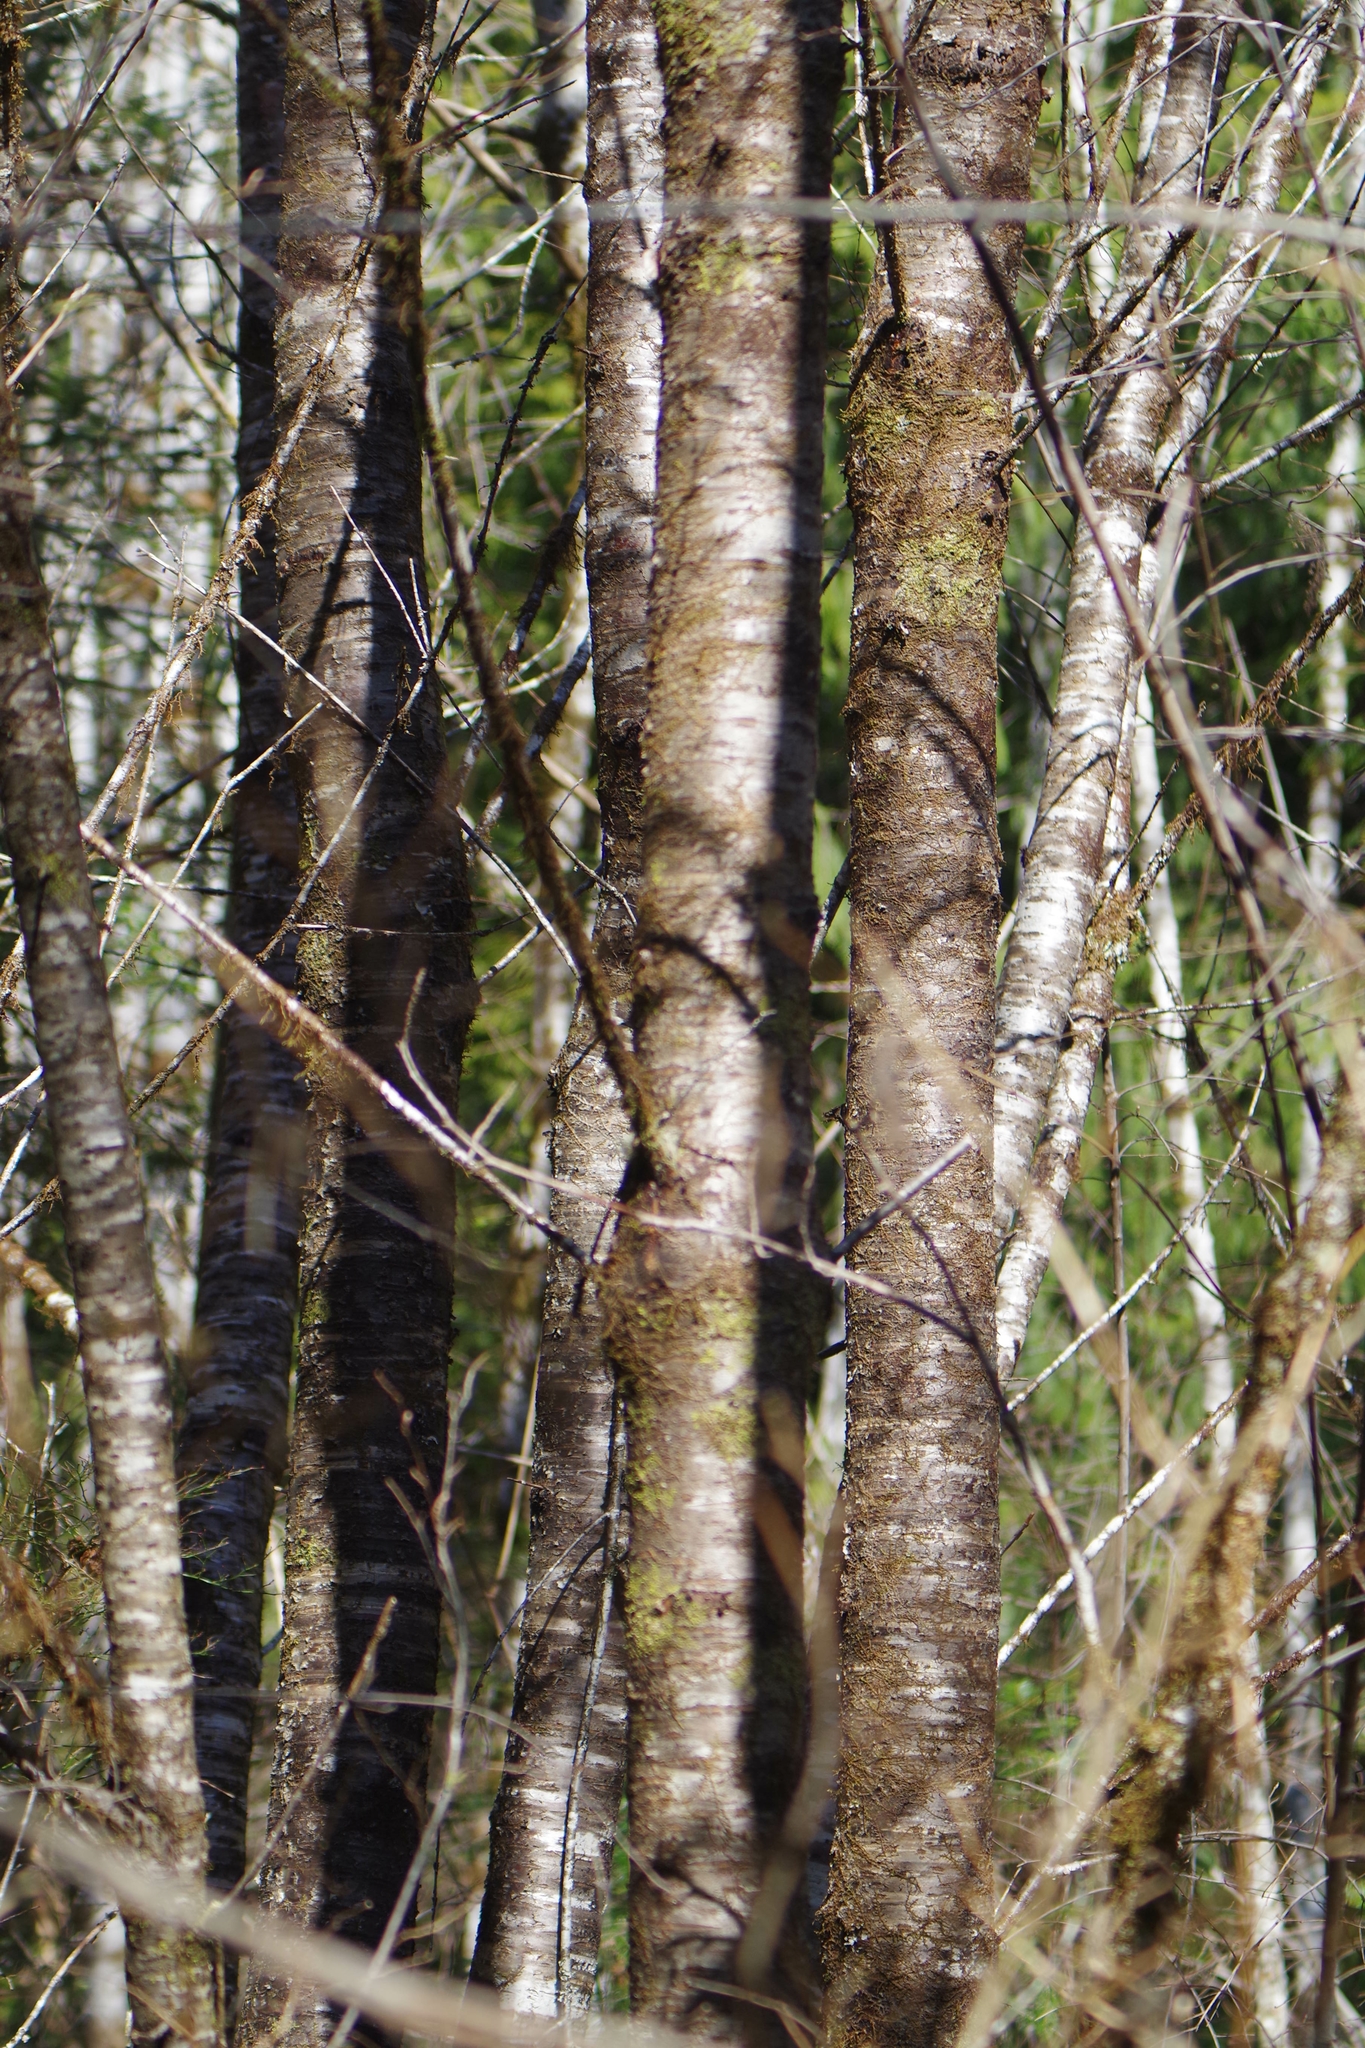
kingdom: Plantae
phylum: Tracheophyta
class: Magnoliopsida
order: Rosales
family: Rosaceae
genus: Prunus
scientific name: Prunus emarginata
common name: Bitter cherry
